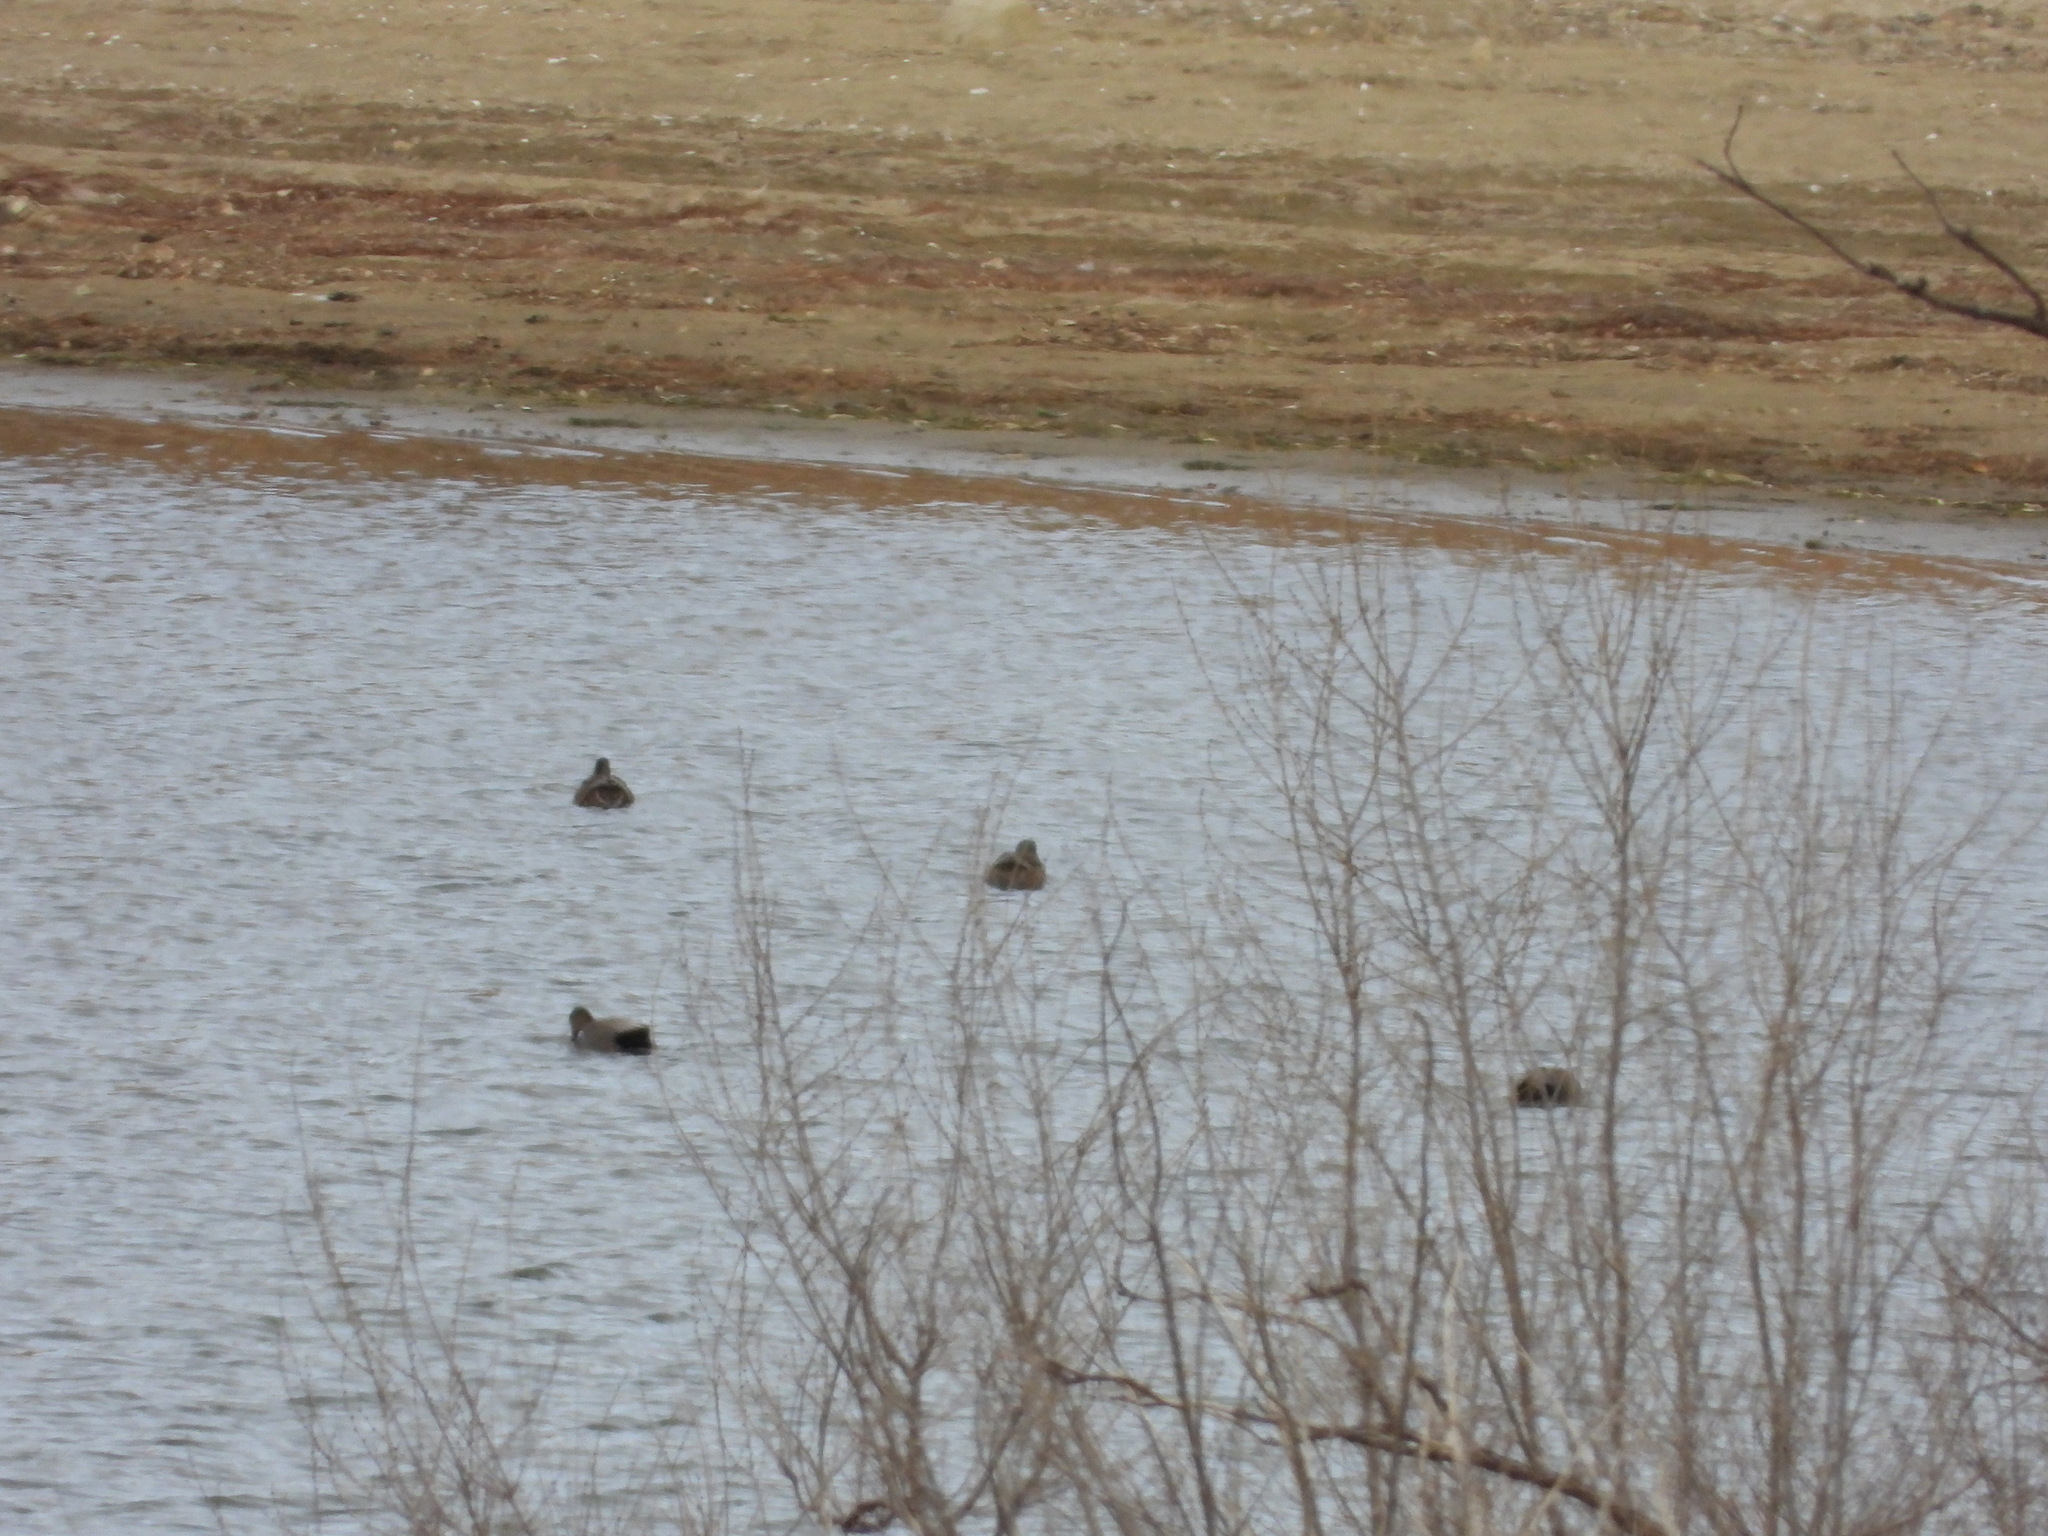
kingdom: Animalia
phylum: Chordata
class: Aves
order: Anseriformes
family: Anatidae
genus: Mareca
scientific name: Mareca strepera
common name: Gadwall
